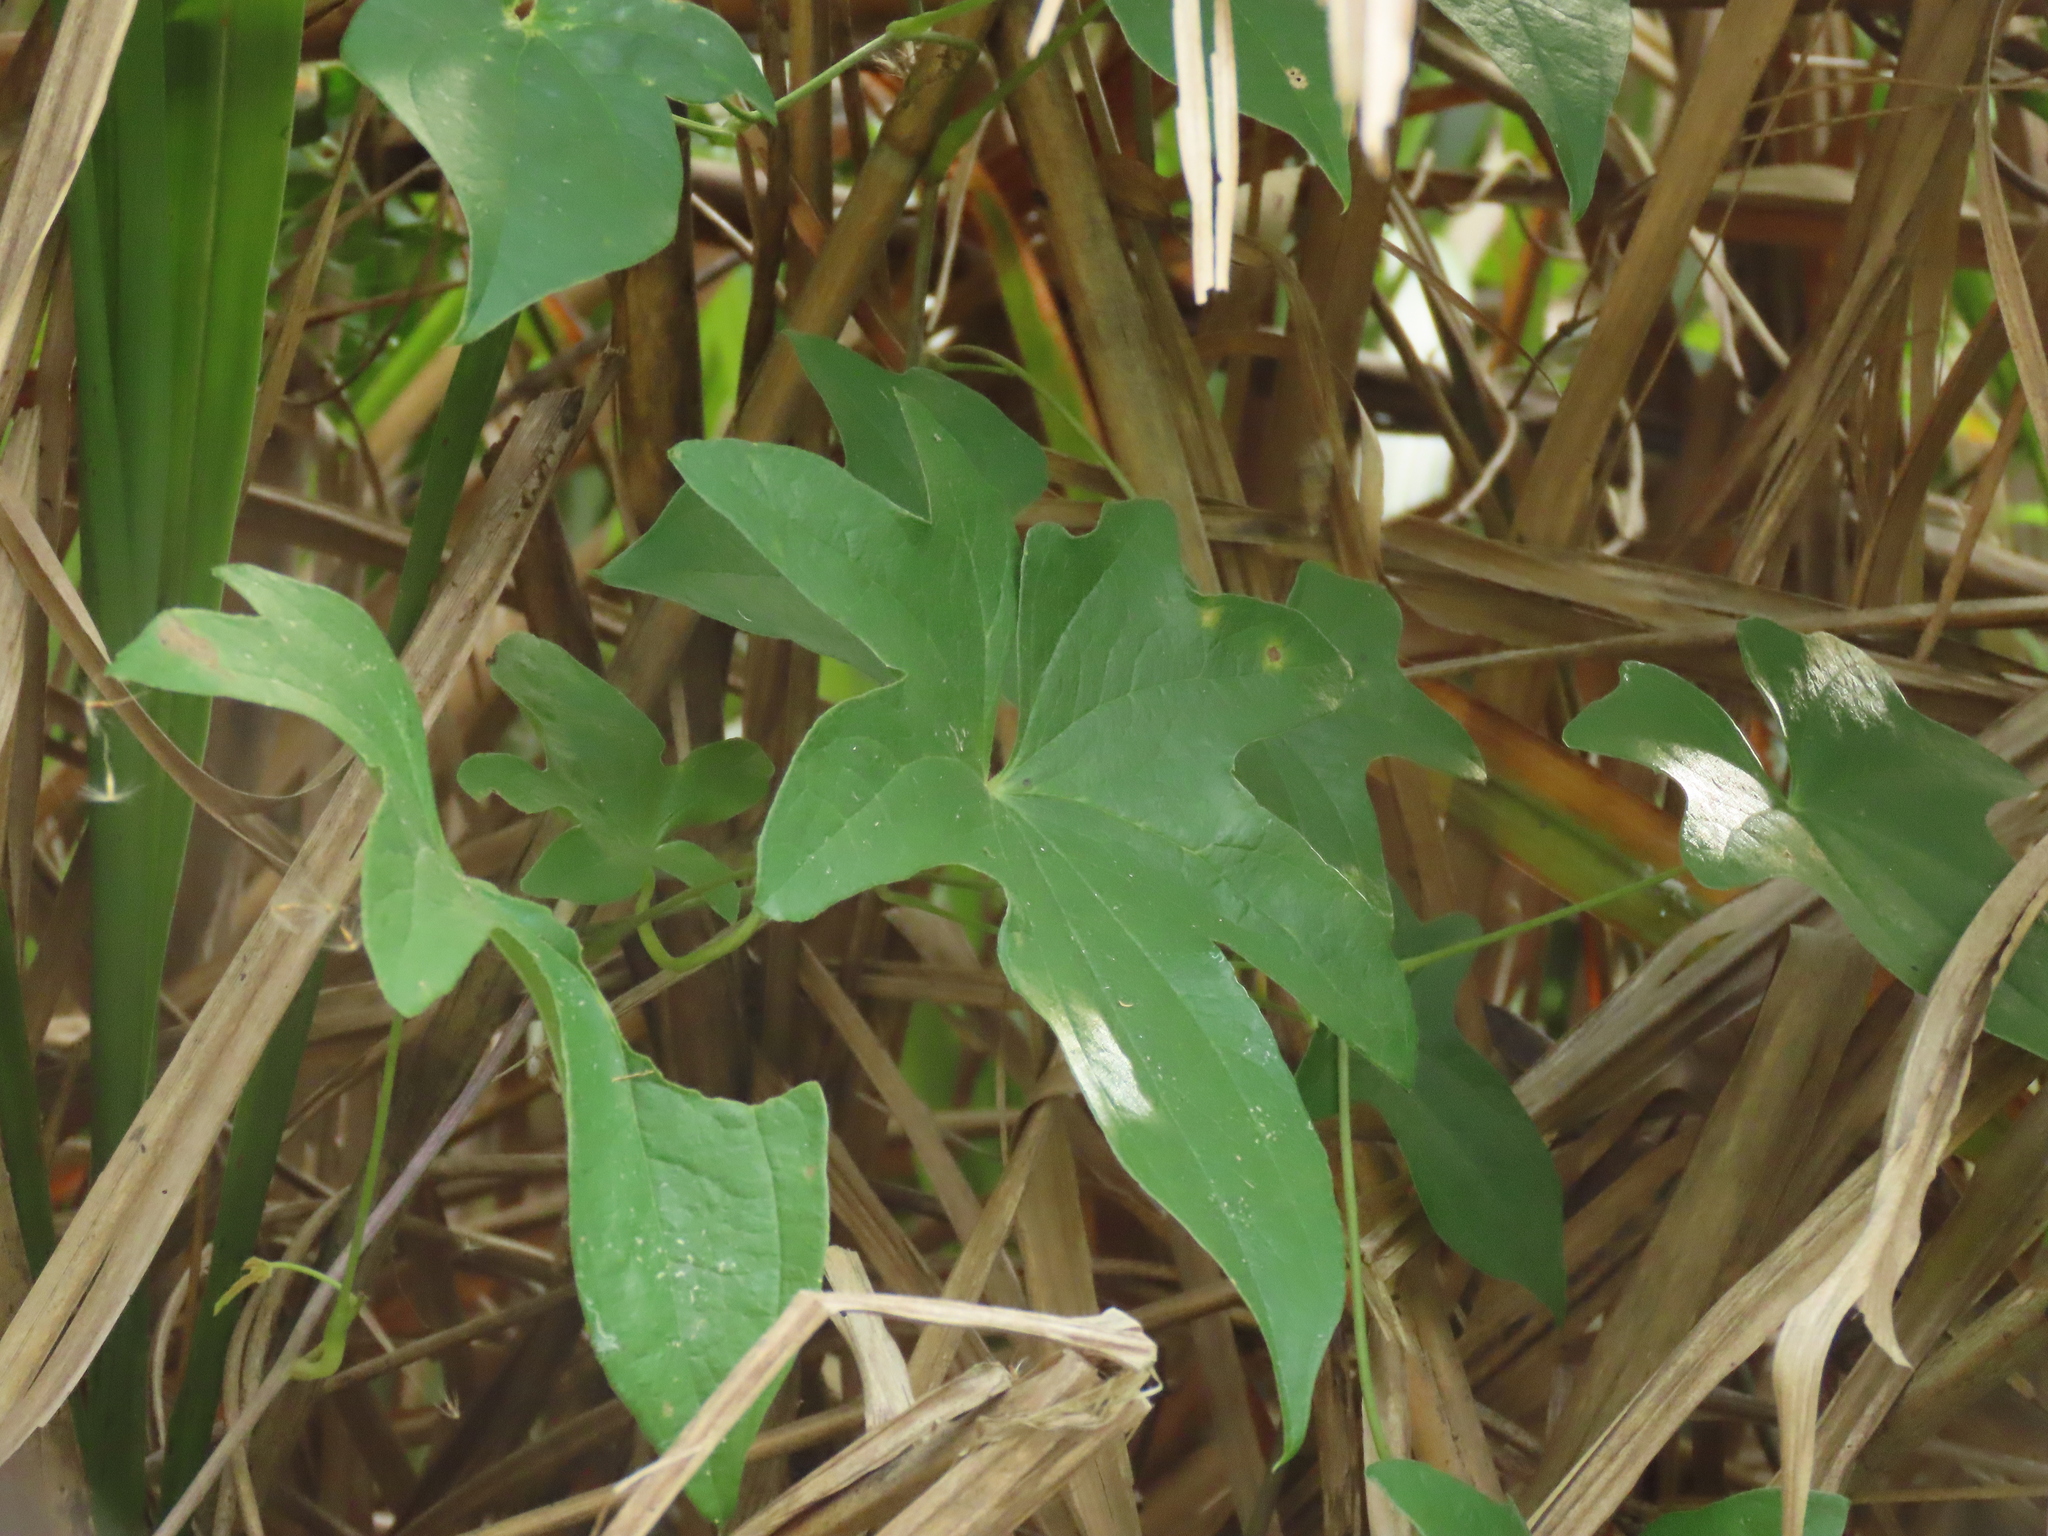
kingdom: Plantae
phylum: Tracheophyta
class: Liliopsida
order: Dioscoreales
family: Dioscoreaceae
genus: Dioscorea
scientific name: Dioscorea futschauensis
